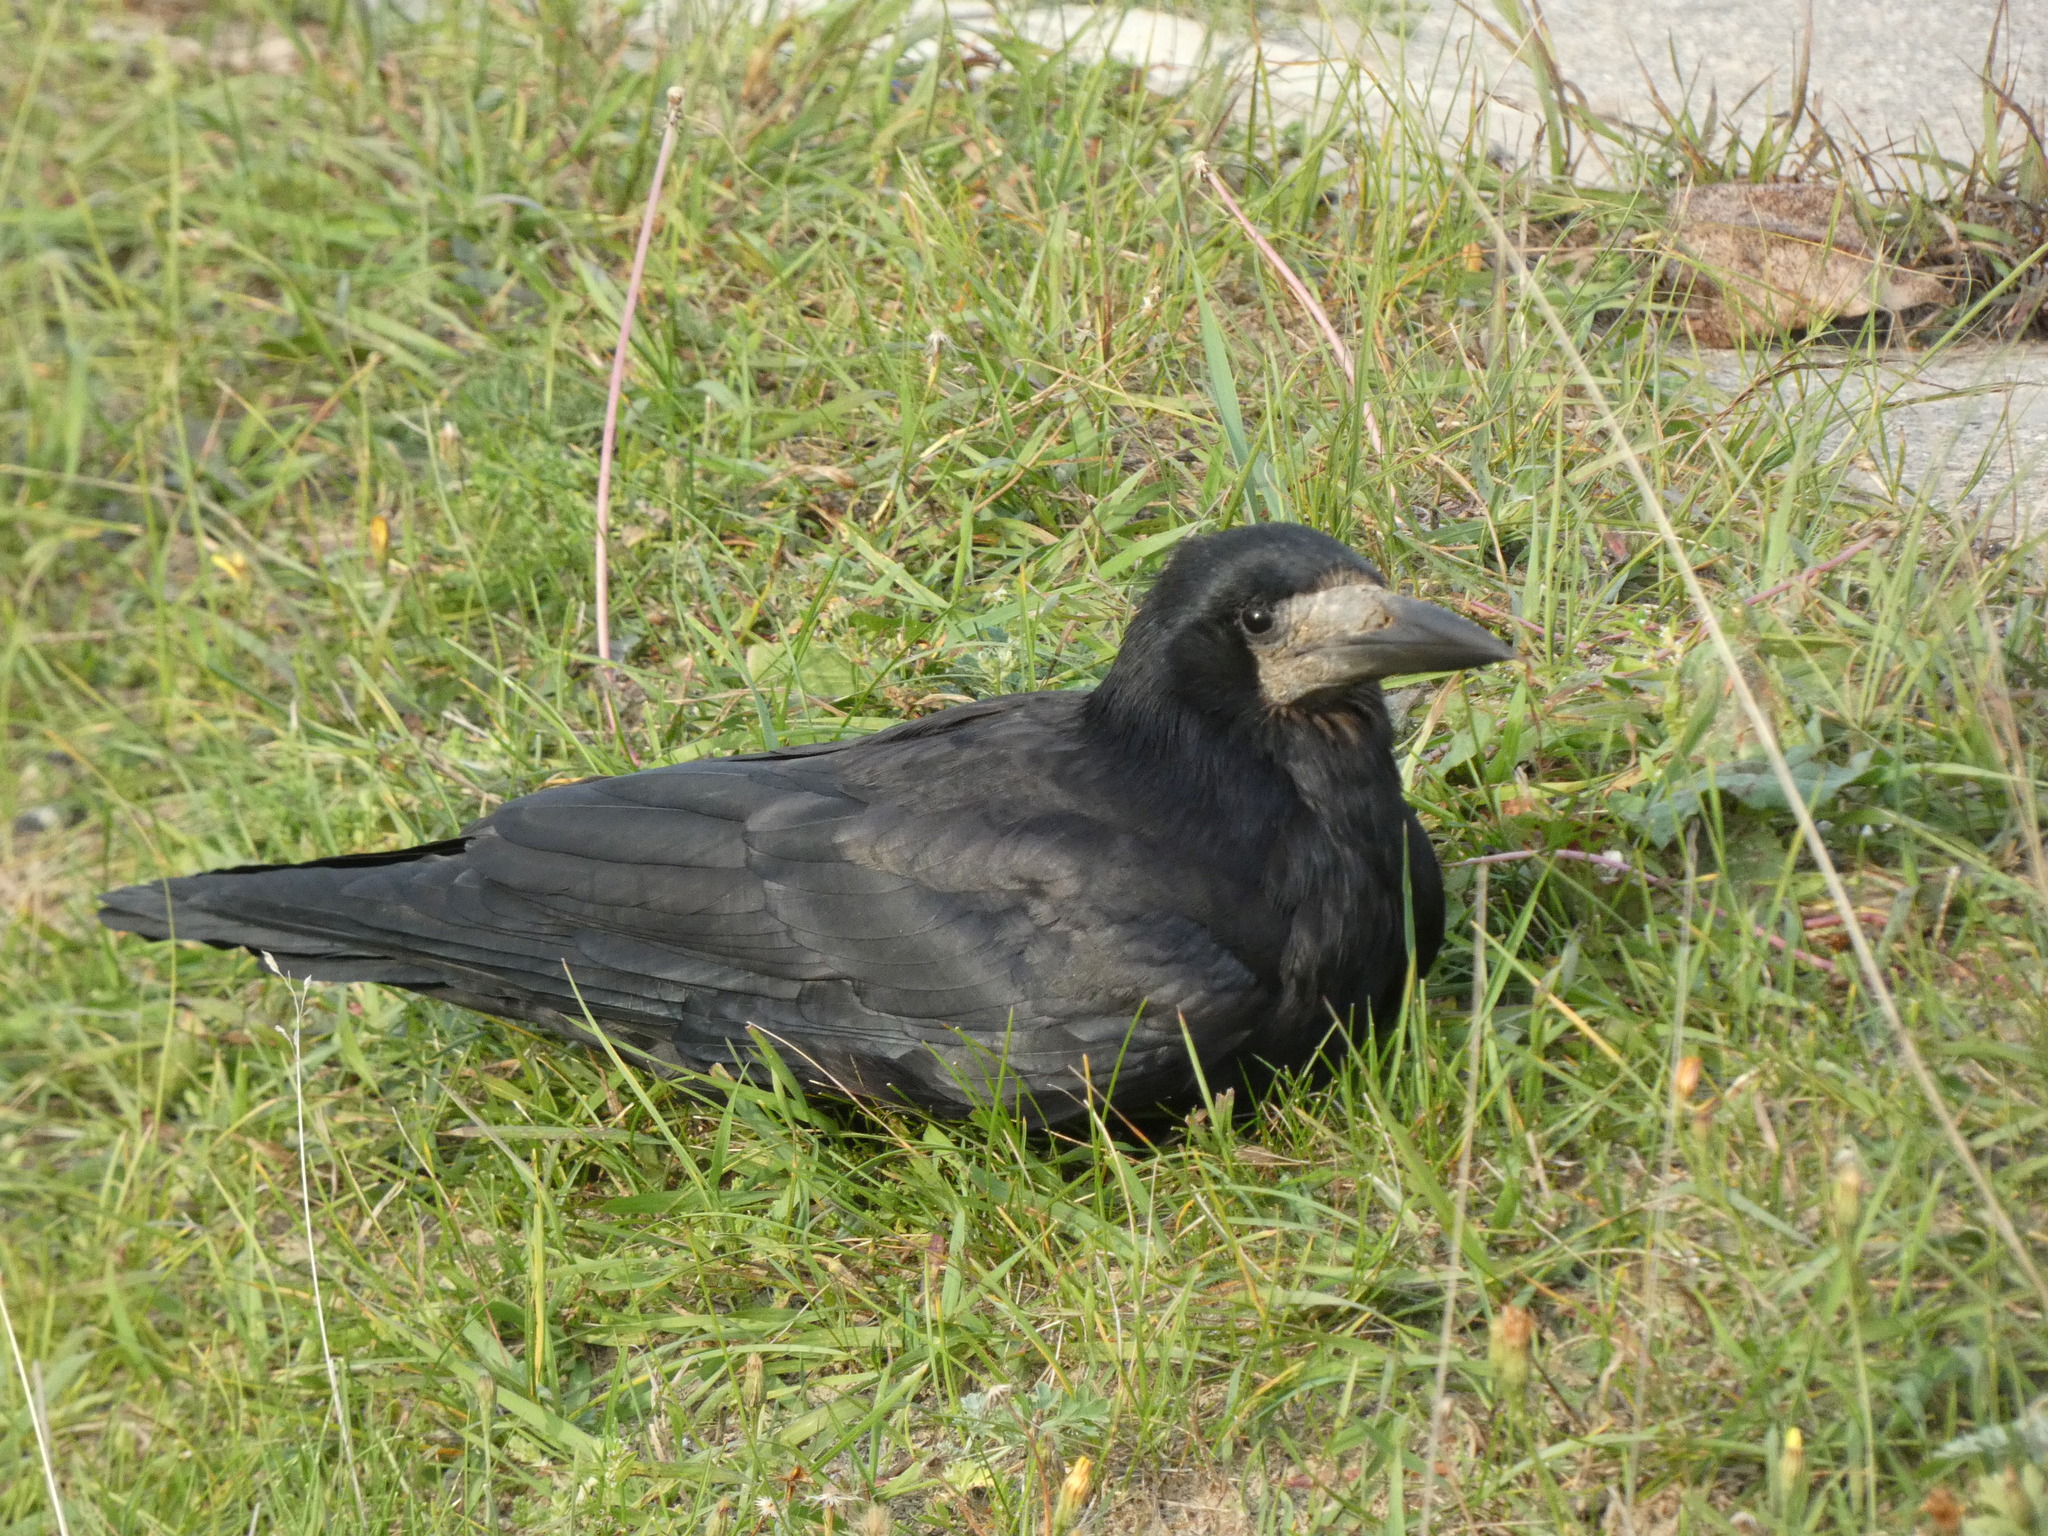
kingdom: Animalia
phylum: Chordata
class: Aves
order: Passeriformes
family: Corvidae
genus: Corvus
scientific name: Corvus frugilegus
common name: Rook
